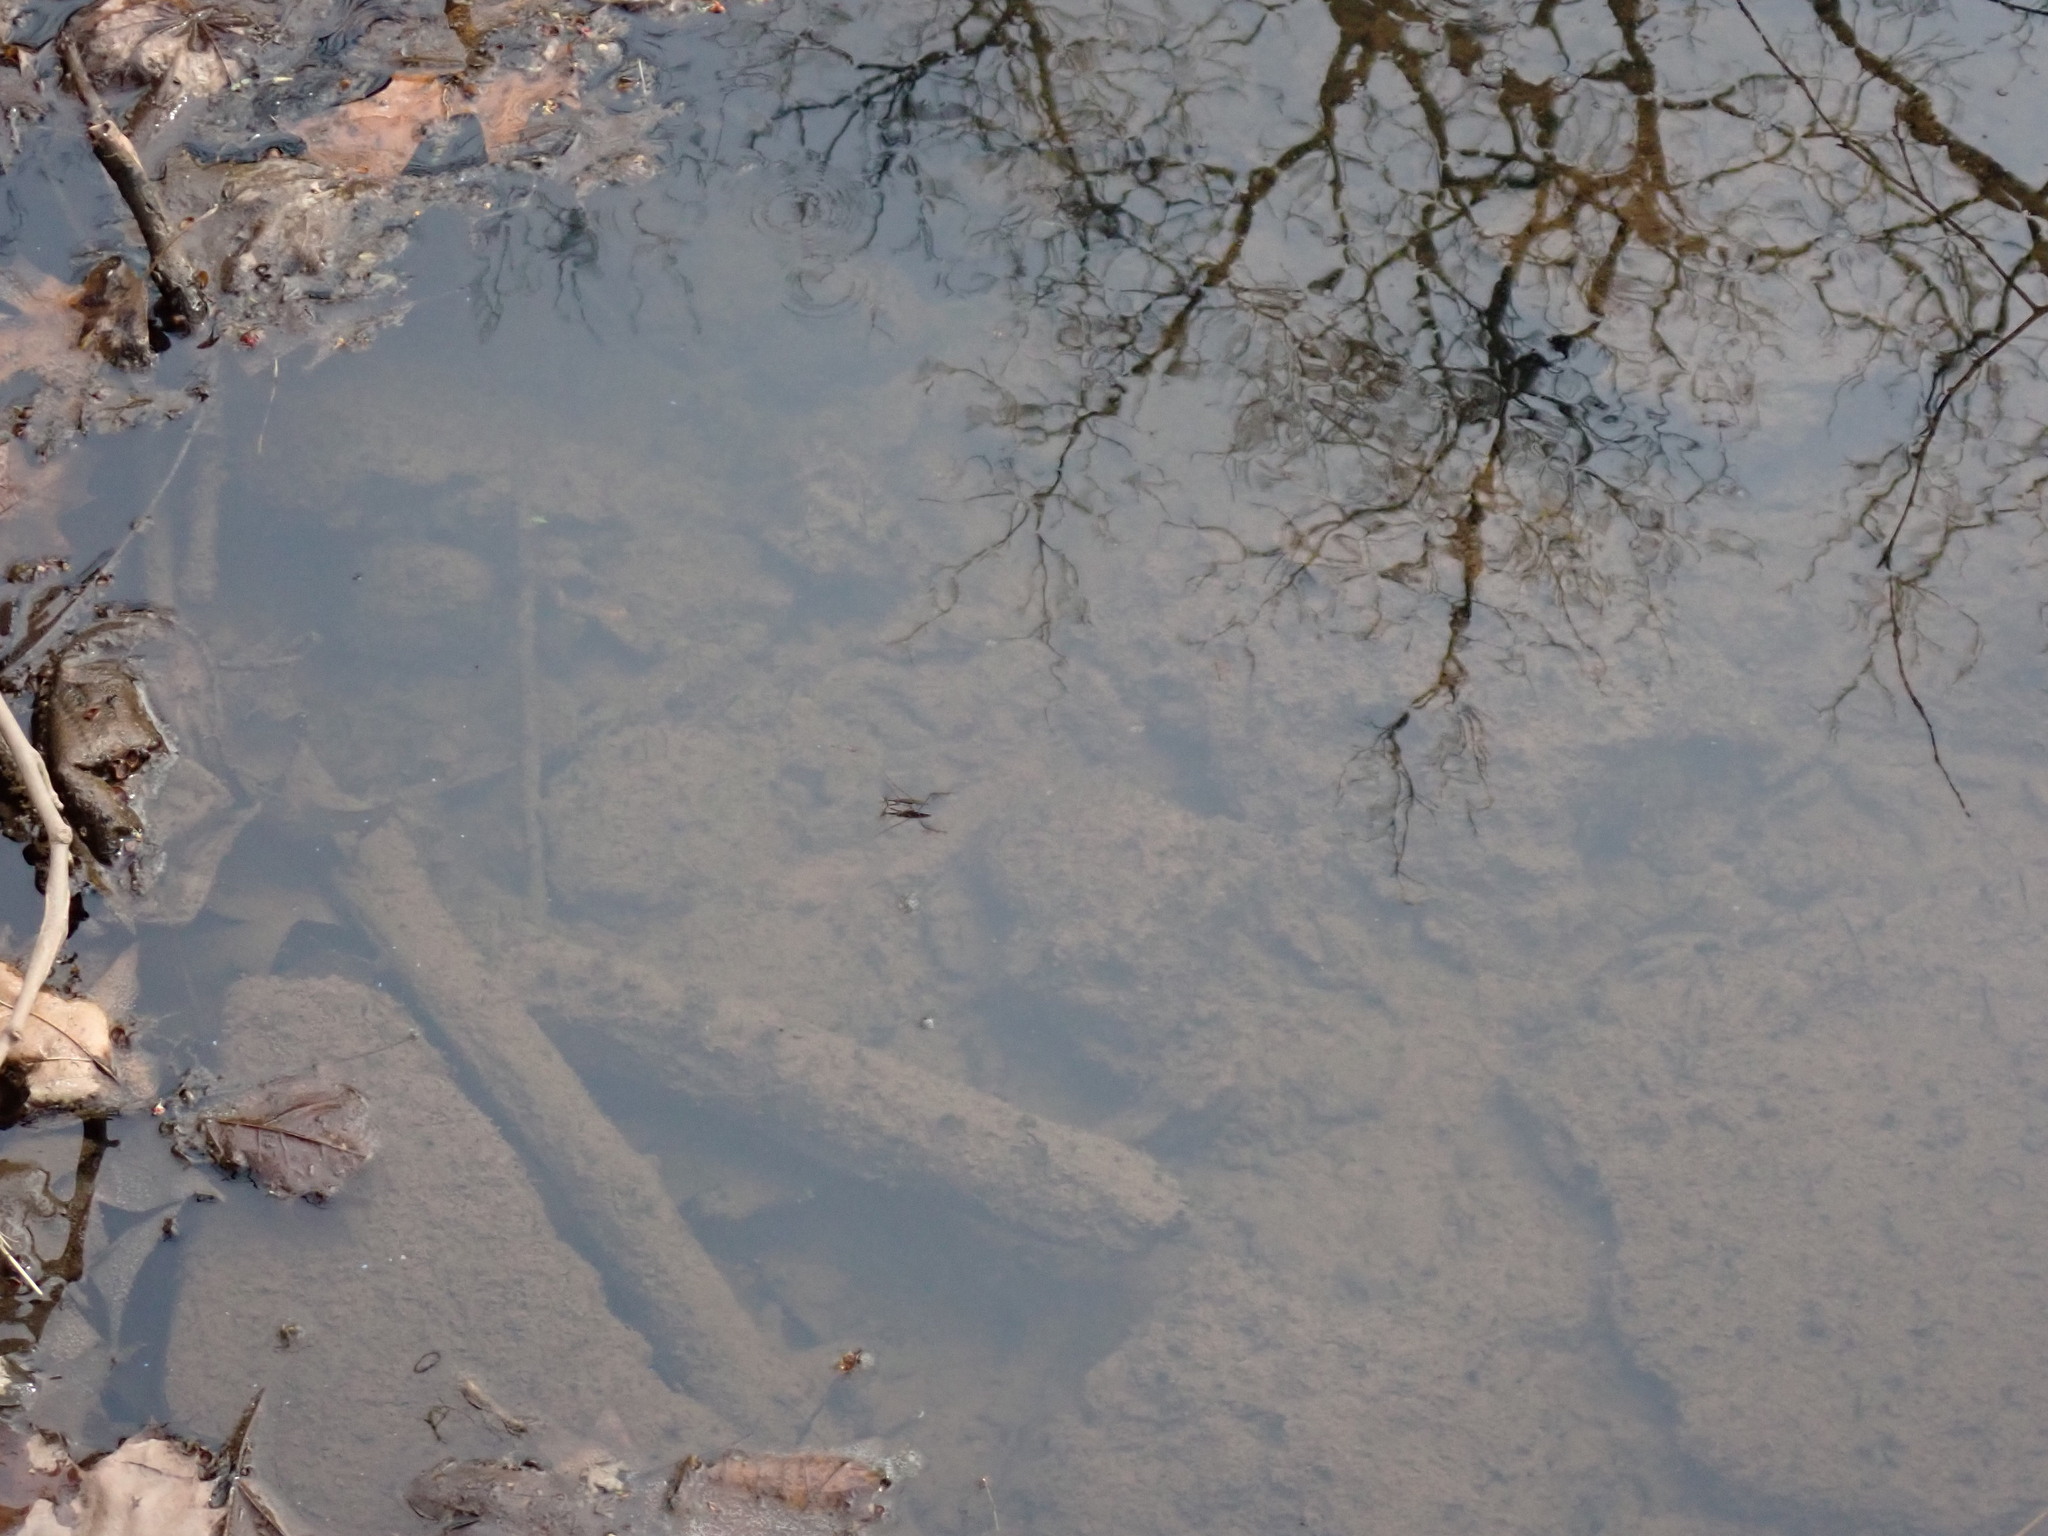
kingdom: Animalia
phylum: Arthropoda
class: Insecta
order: Hemiptera
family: Gerridae
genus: Aquarius
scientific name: Aquarius remigis
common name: Common water strider
